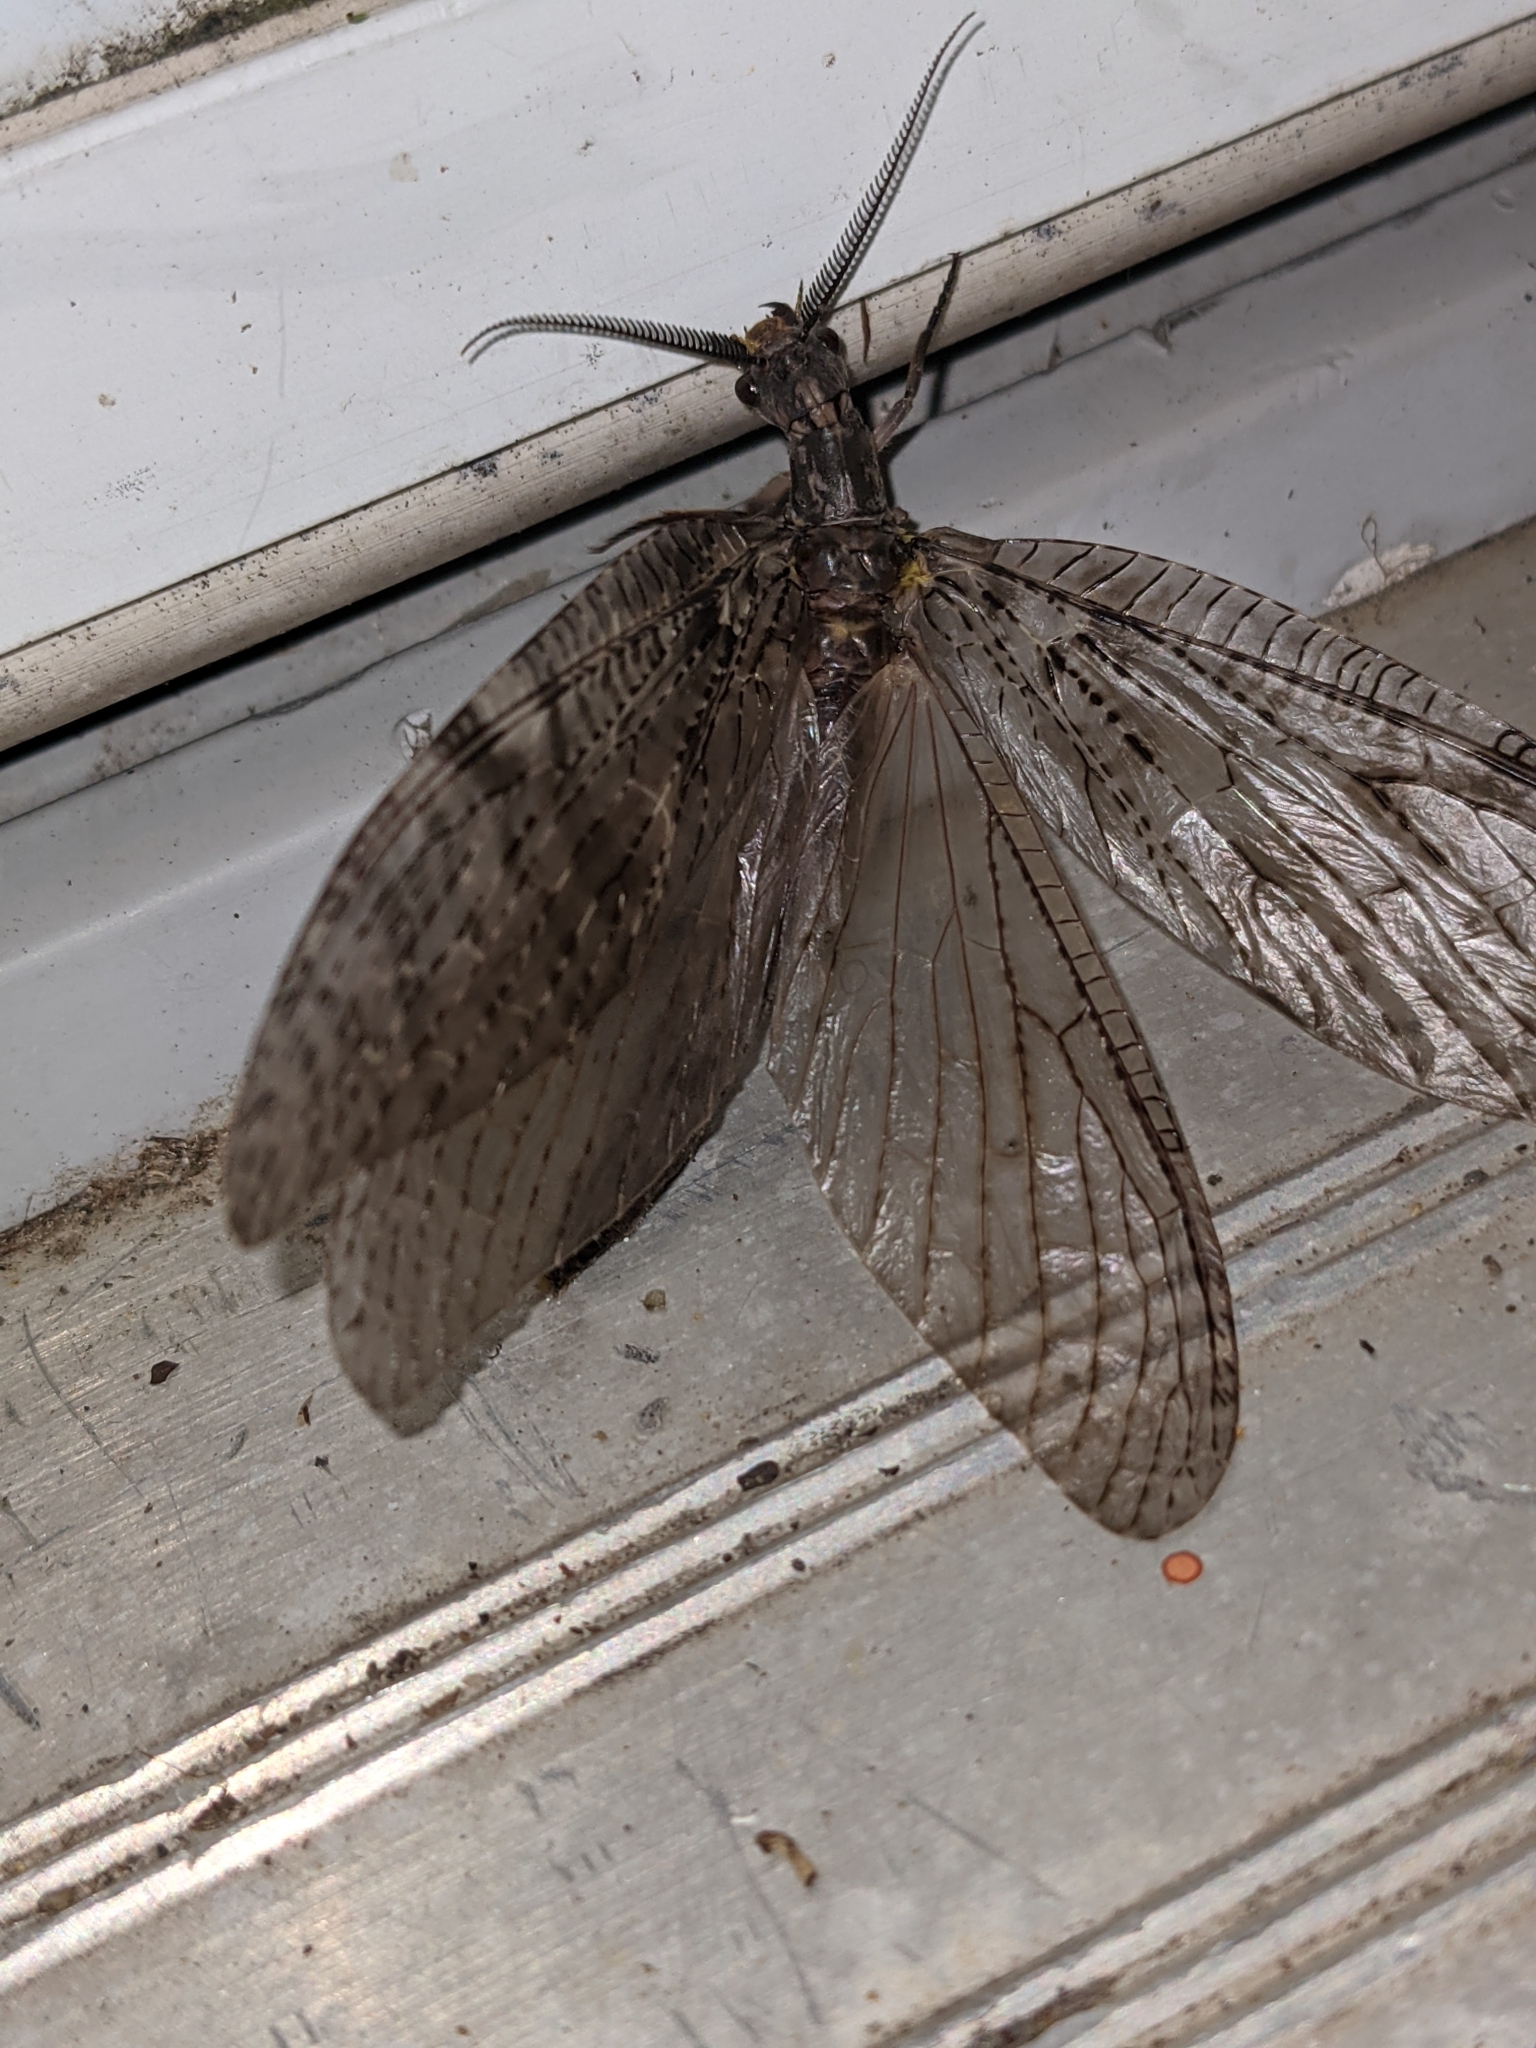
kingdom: Animalia
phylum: Arthropoda
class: Insecta
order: Megaloptera
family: Corydalidae
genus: Chauliodes
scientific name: Chauliodes pectinicornis
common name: Summer fishfly
